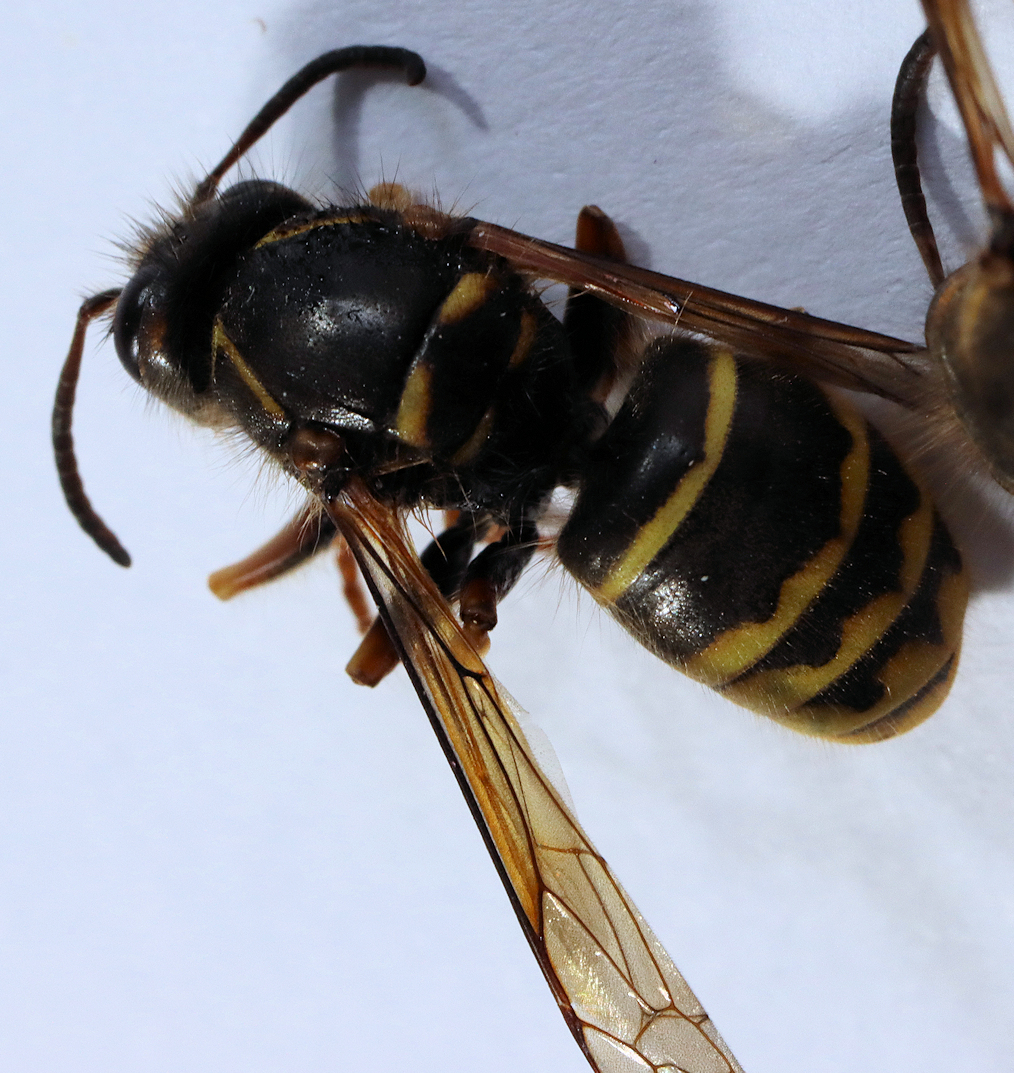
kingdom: Animalia
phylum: Arthropoda
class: Insecta
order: Hymenoptera
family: Vespidae
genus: Dolichovespula
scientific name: Dolichovespula media
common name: Median wasp
